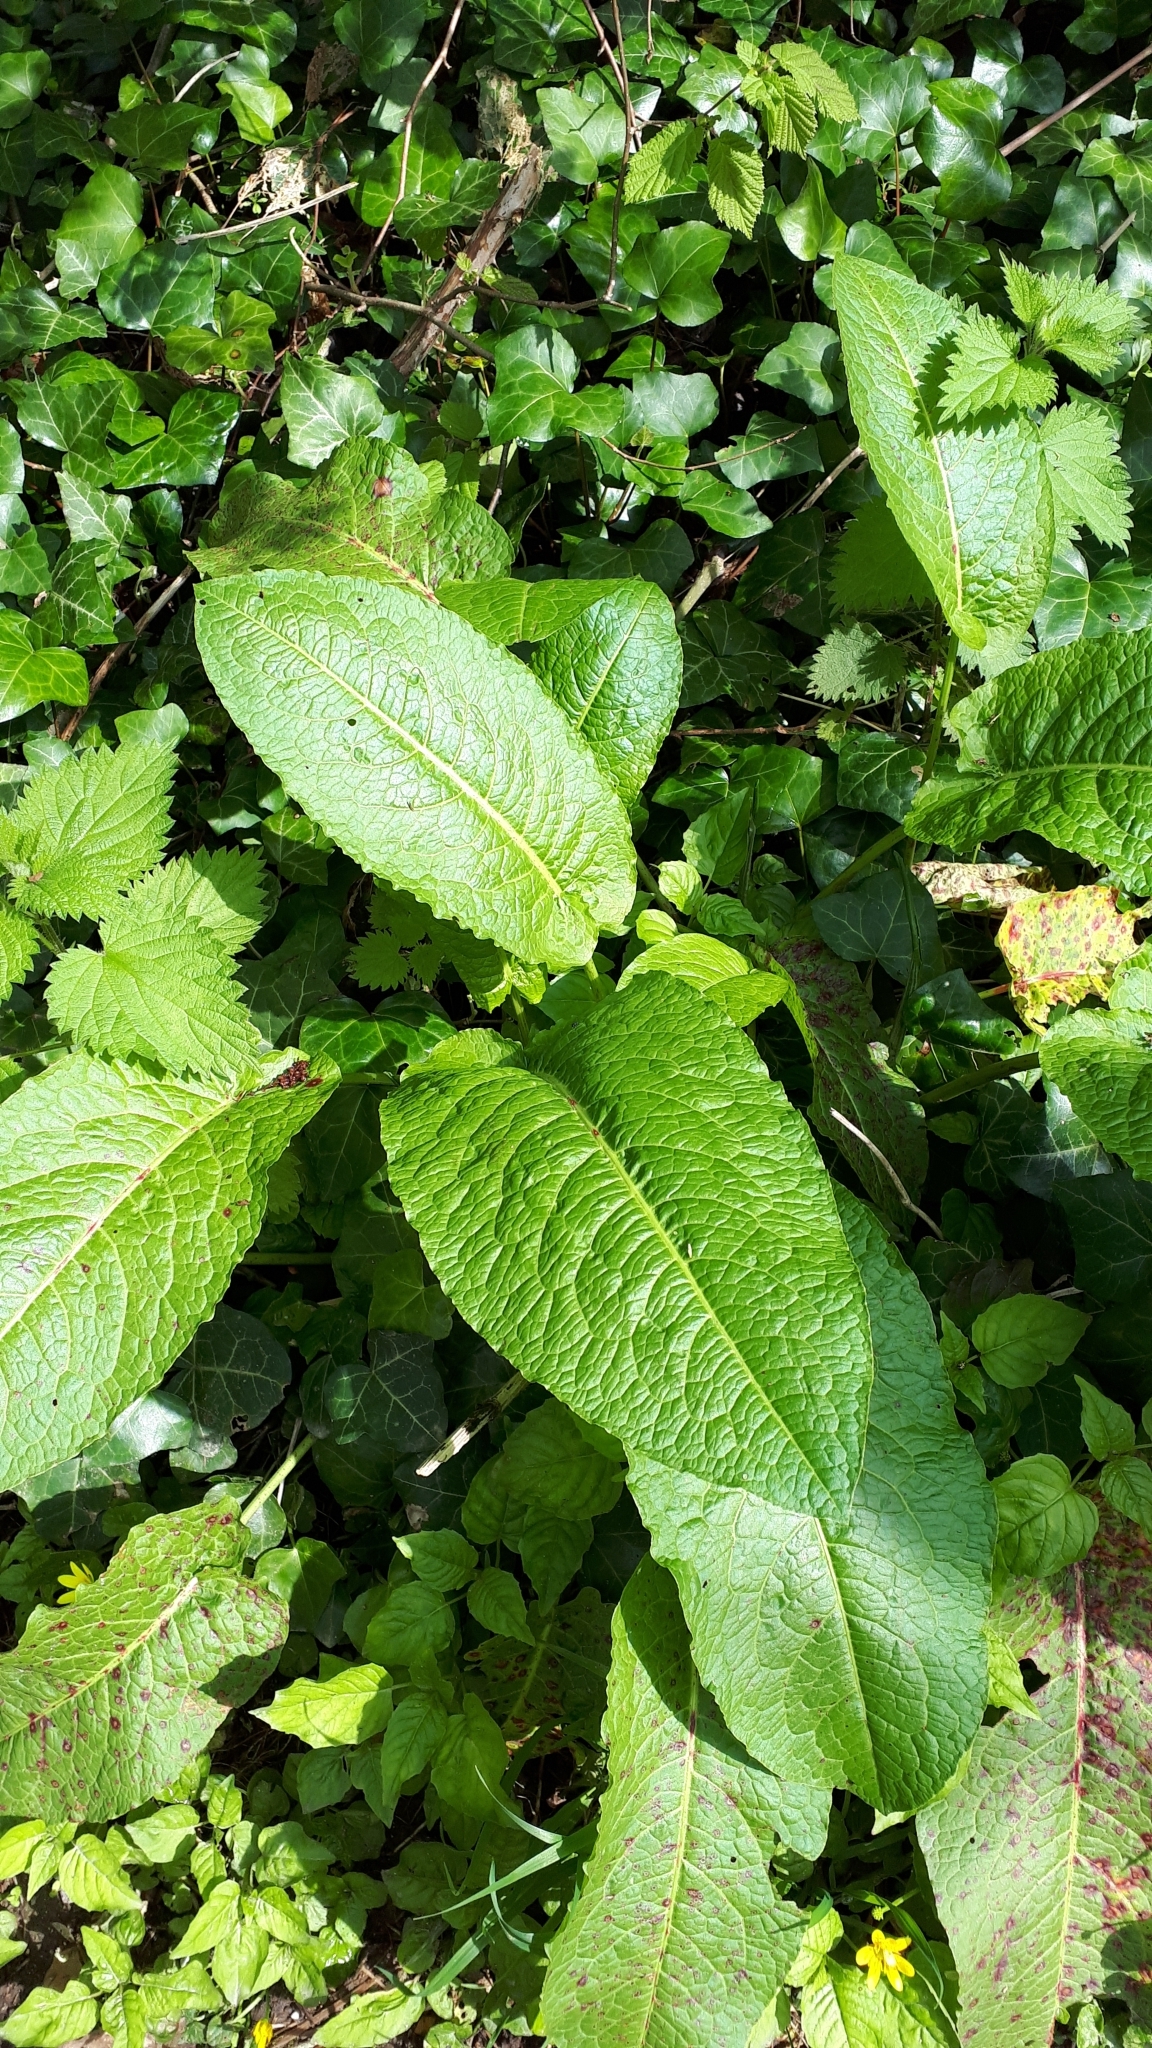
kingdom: Plantae
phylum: Tracheophyta
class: Magnoliopsida
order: Caryophyllales
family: Polygonaceae
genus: Rumex
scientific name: Rumex obtusifolius
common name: Bitter dock
